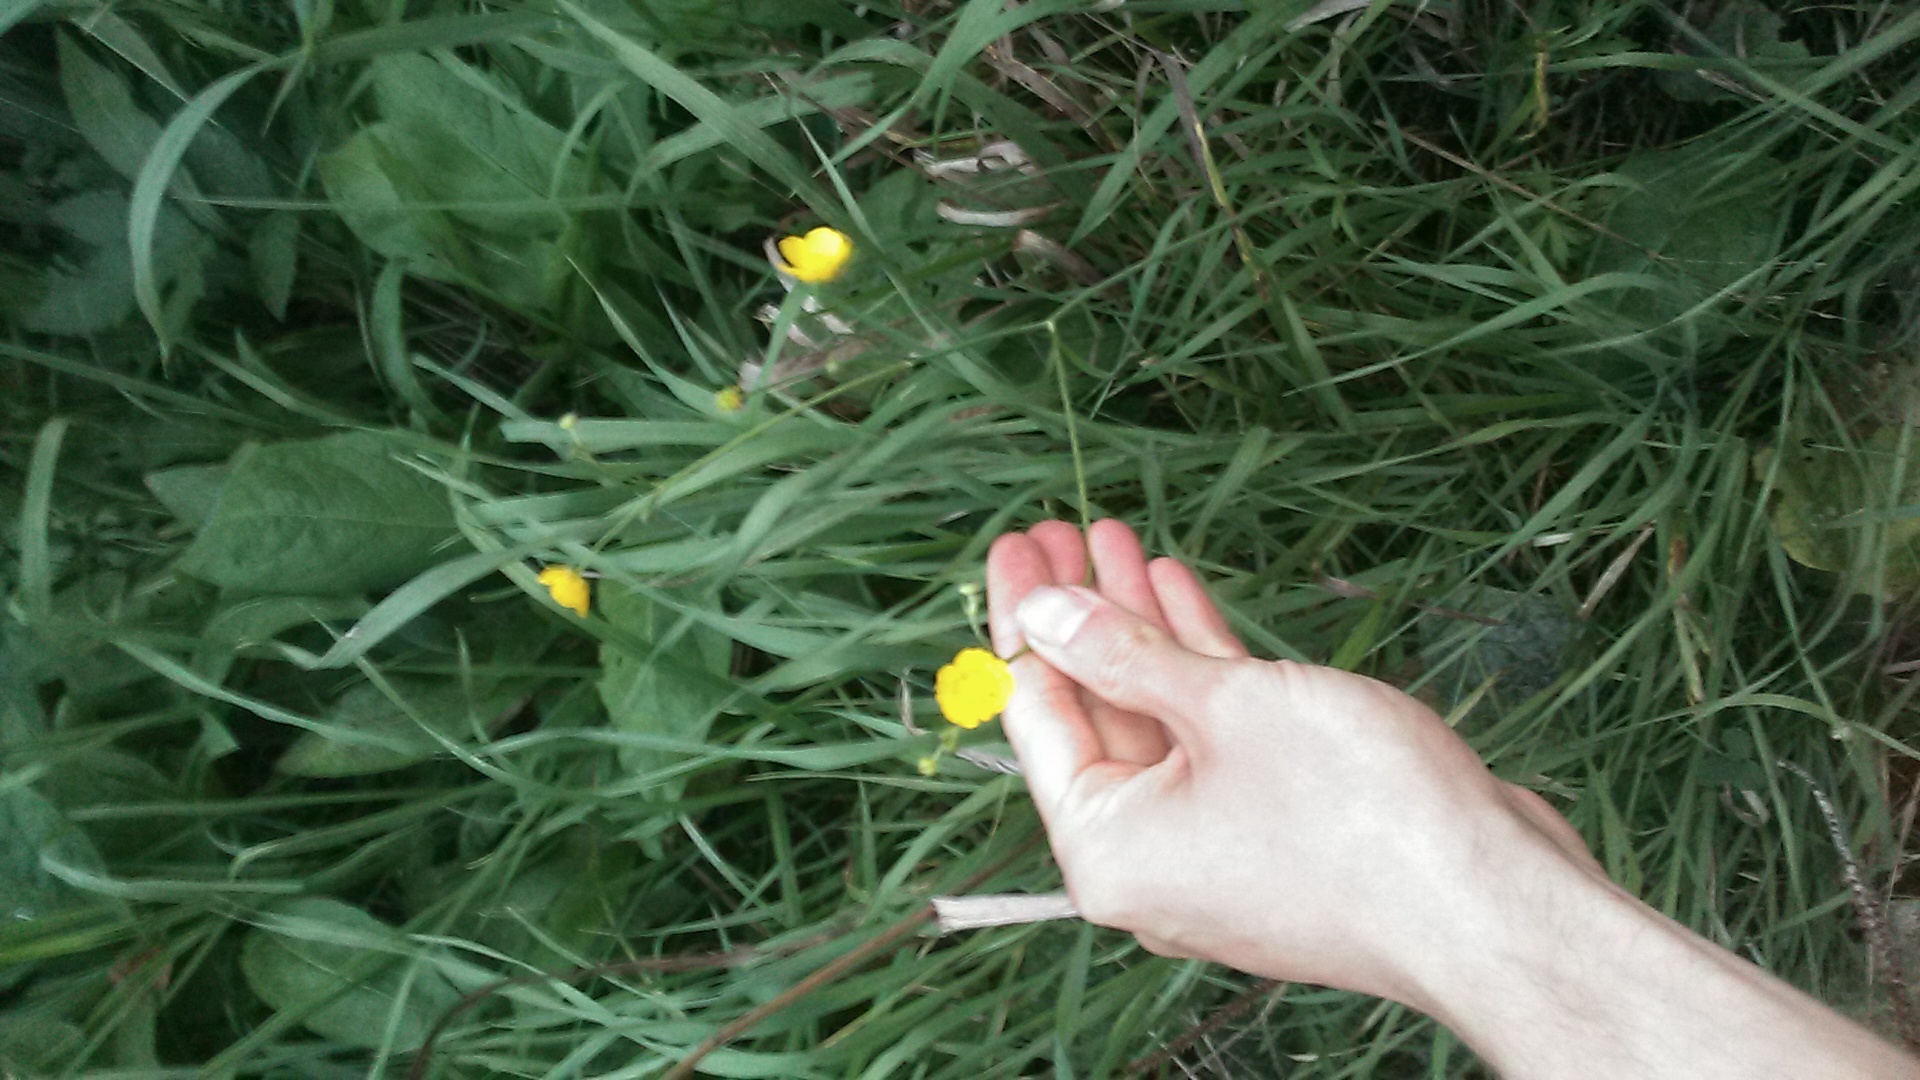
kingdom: Plantae
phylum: Tracheophyta
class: Magnoliopsida
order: Ranunculales
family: Ranunculaceae
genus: Ranunculus
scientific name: Ranunculus acris
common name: Meadow buttercup
